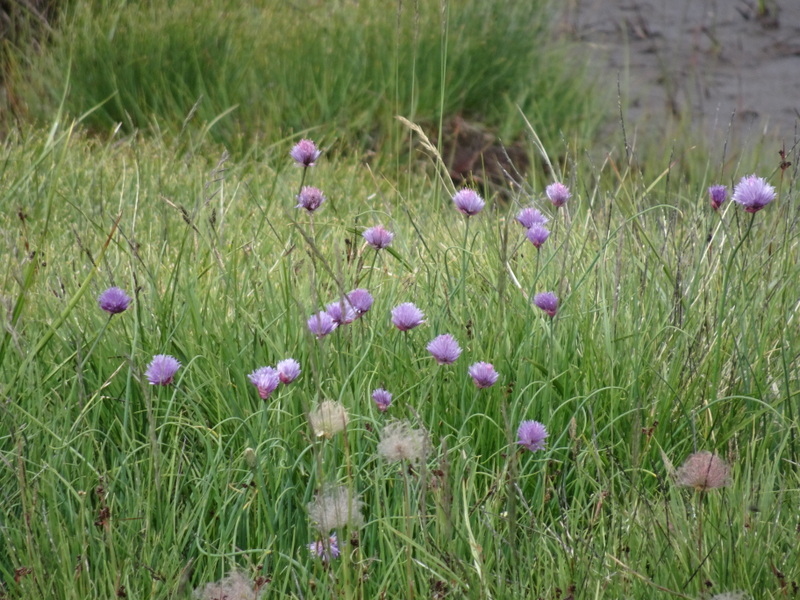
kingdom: Plantae
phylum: Tracheophyta
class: Liliopsida
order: Asparagales
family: Amaryllidaceae
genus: Allium
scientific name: Allium schoenoprasum
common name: Chives
